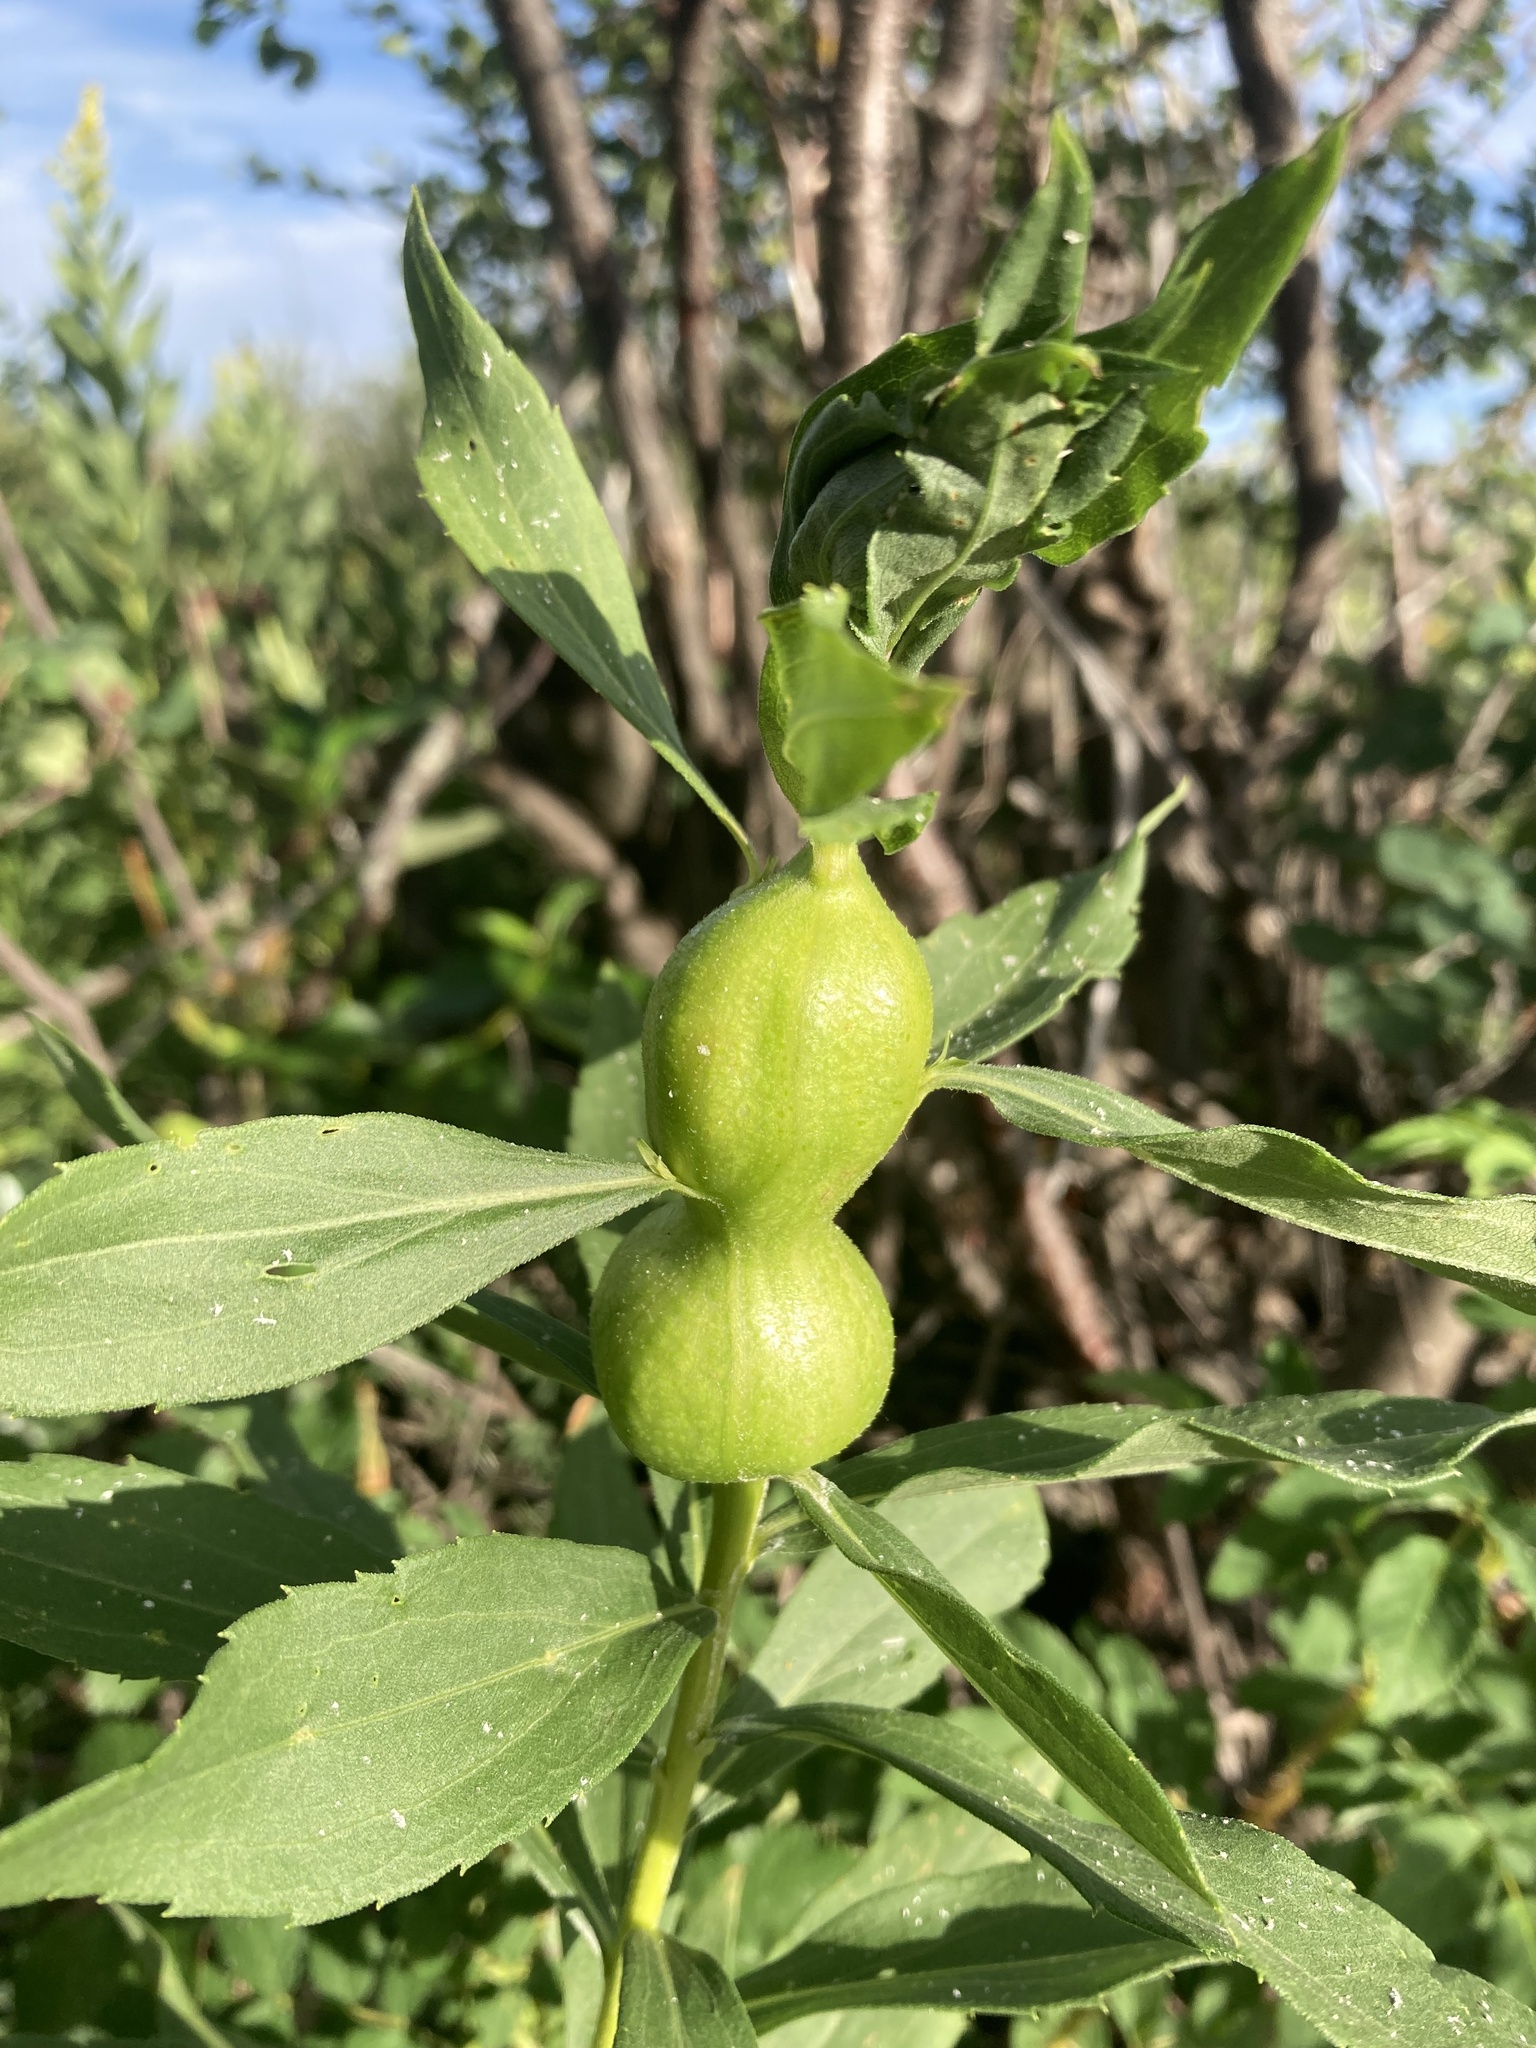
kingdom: Animalia
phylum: Arthropoda
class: Insecta
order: Diptera
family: Tephritidae
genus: Eurosta
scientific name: Eurosta solidaginis
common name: Goldenrod gall fly
